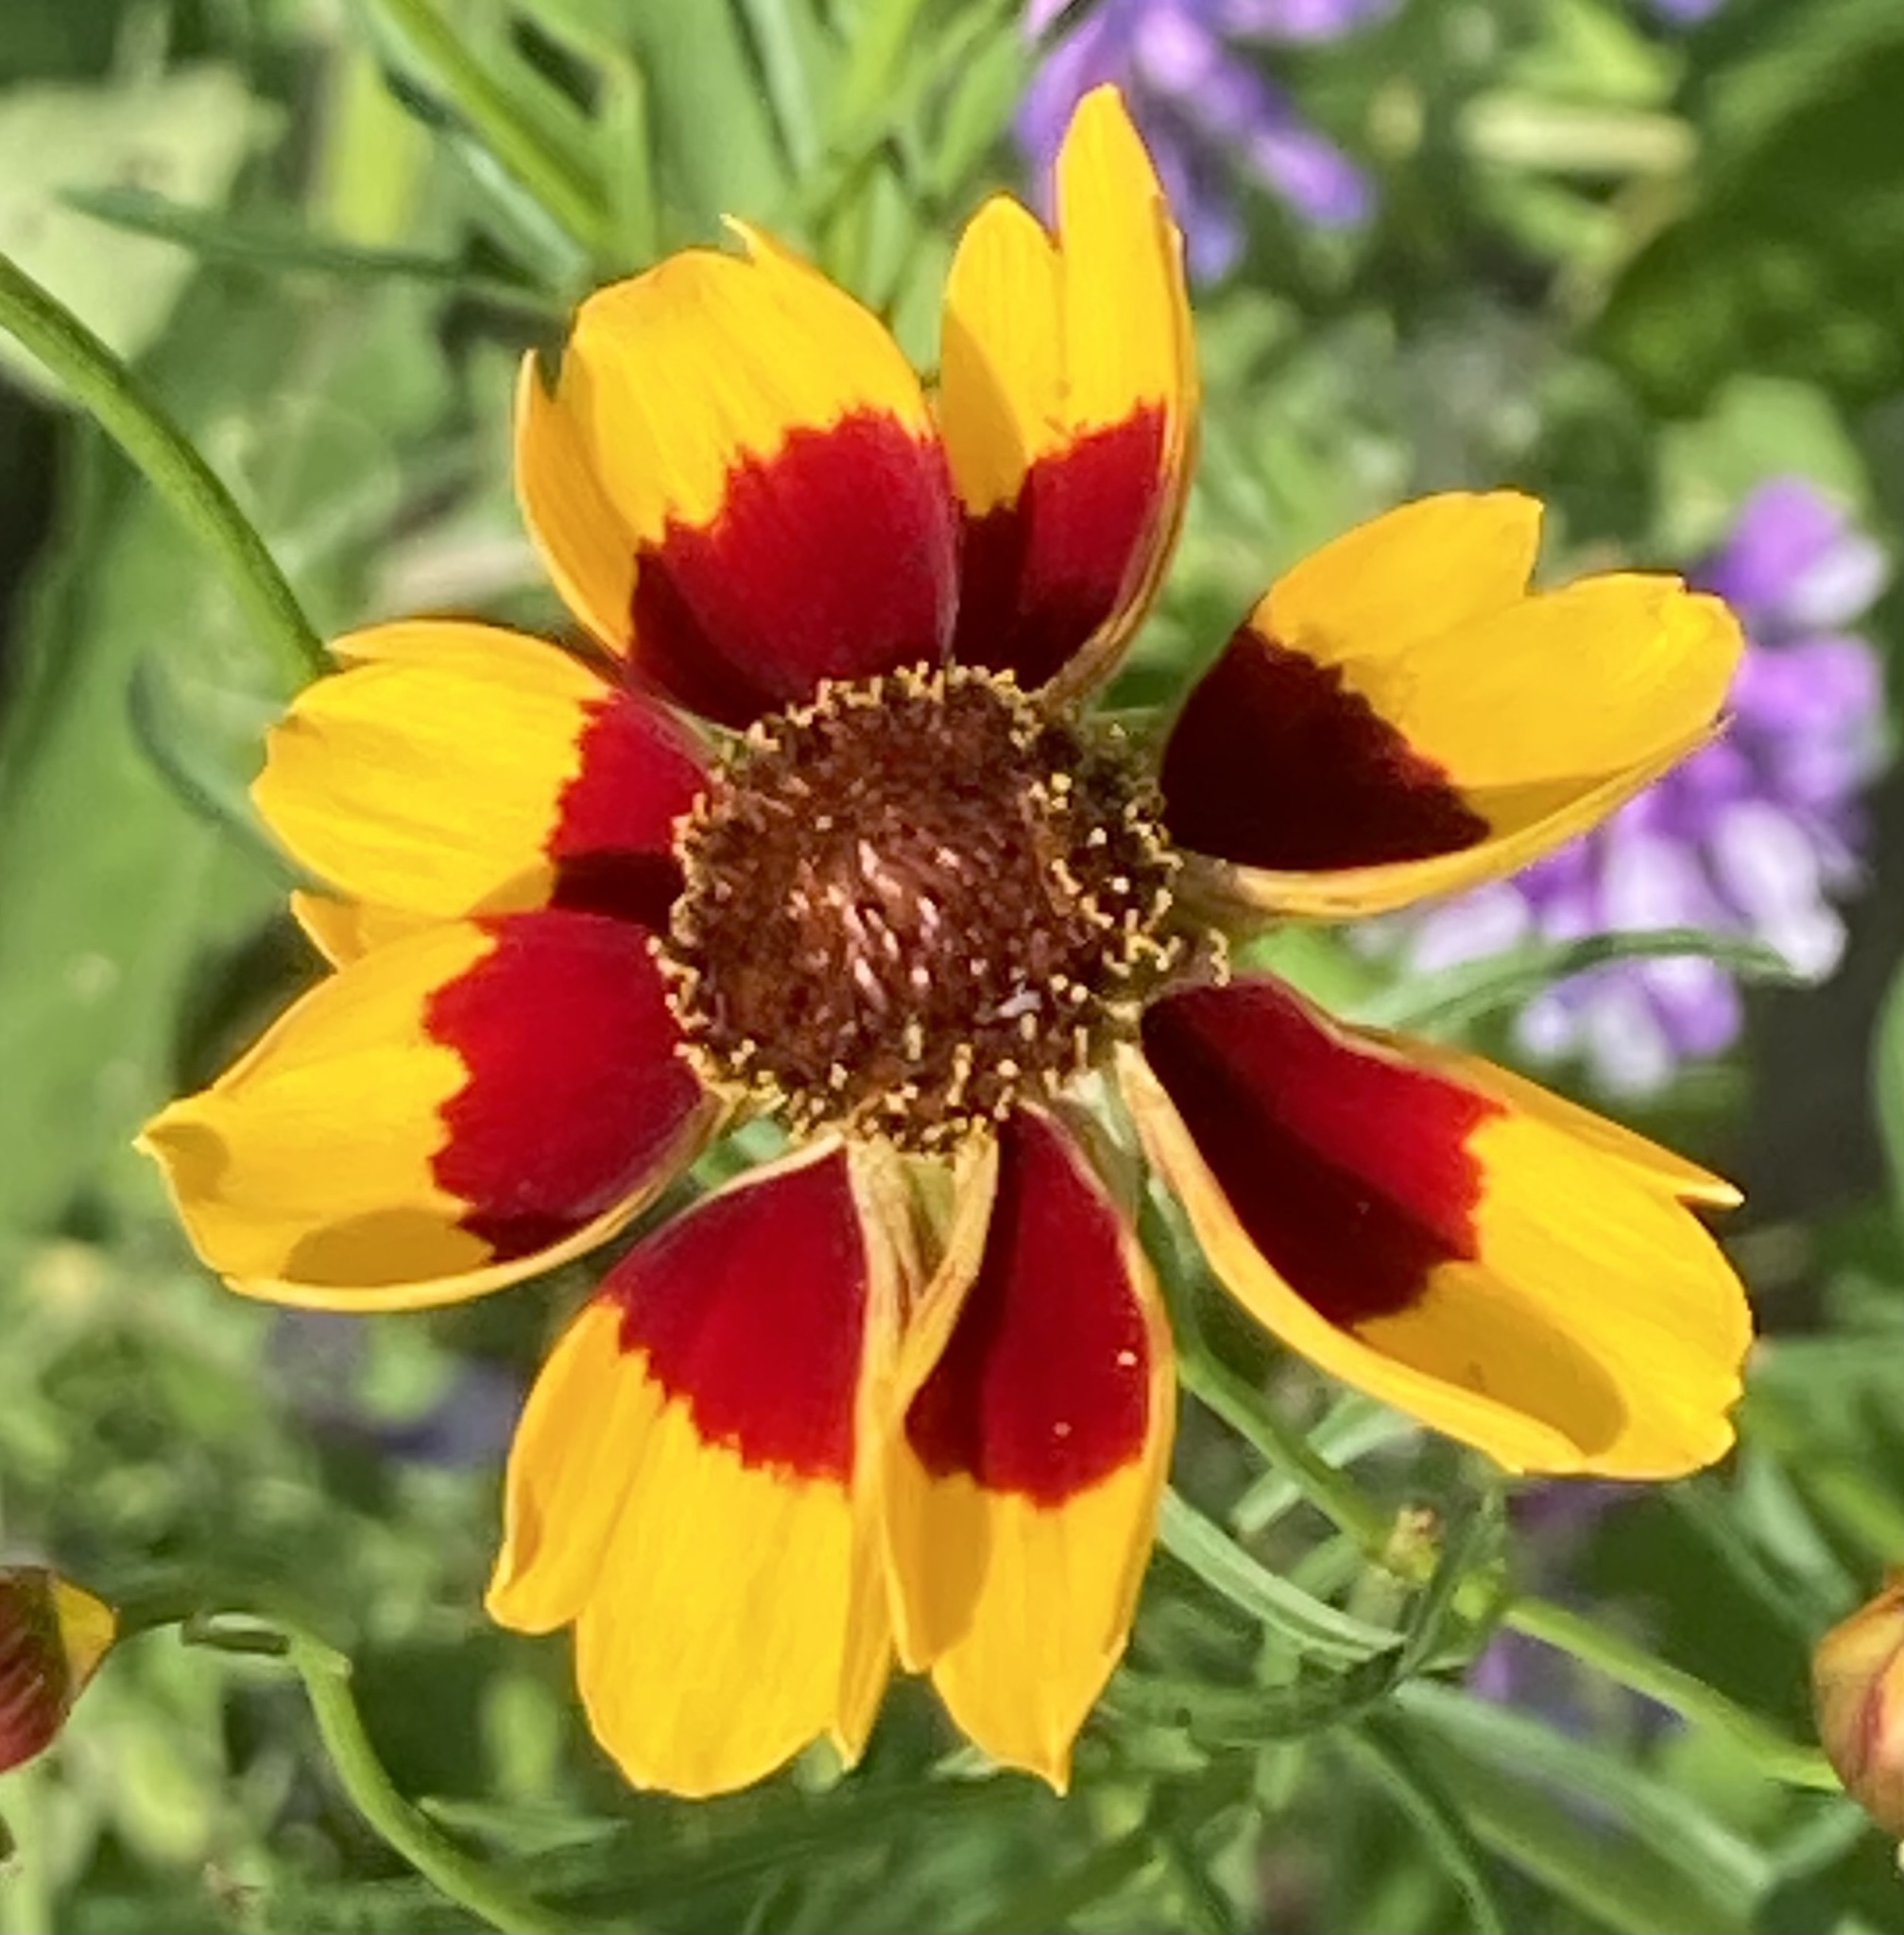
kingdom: Plantae
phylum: Tracheophyta
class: Magnoliopsida
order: Asterales
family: Asteraceae
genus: Coreopsis
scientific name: Coreopsis tinctoria
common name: Garden tickseed
